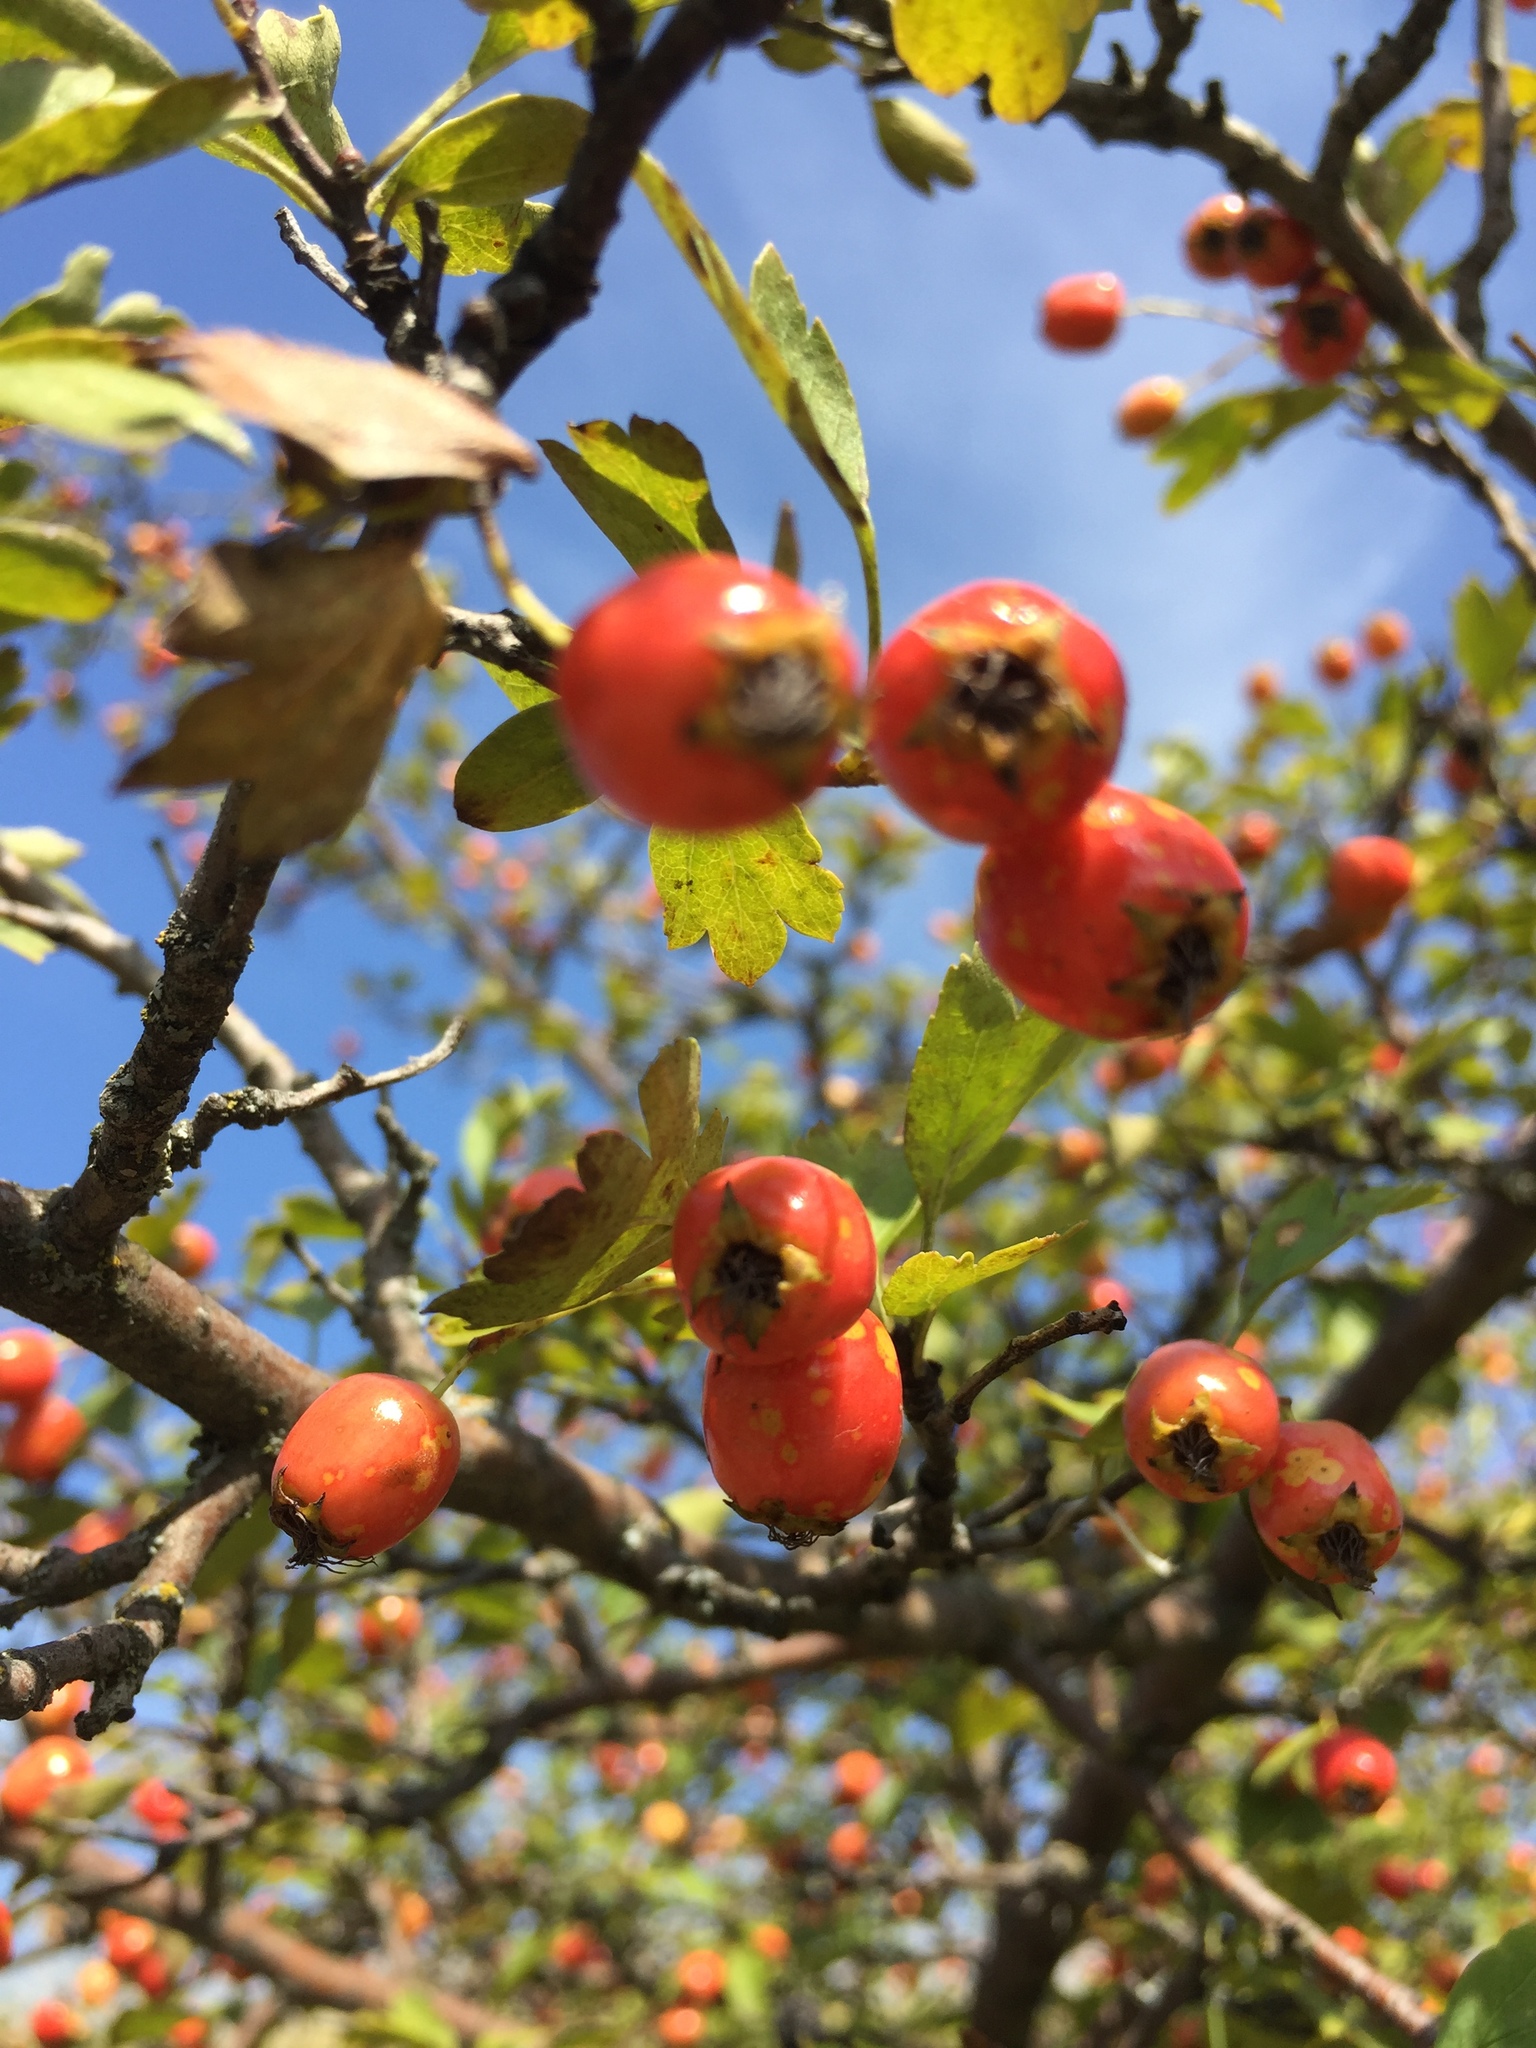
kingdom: Plantae
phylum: Tracheophyta
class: Magnoliopsida
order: Rosales
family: Rosaceae
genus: Crataegus
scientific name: Crataegus monogyna
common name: Hawthorn
